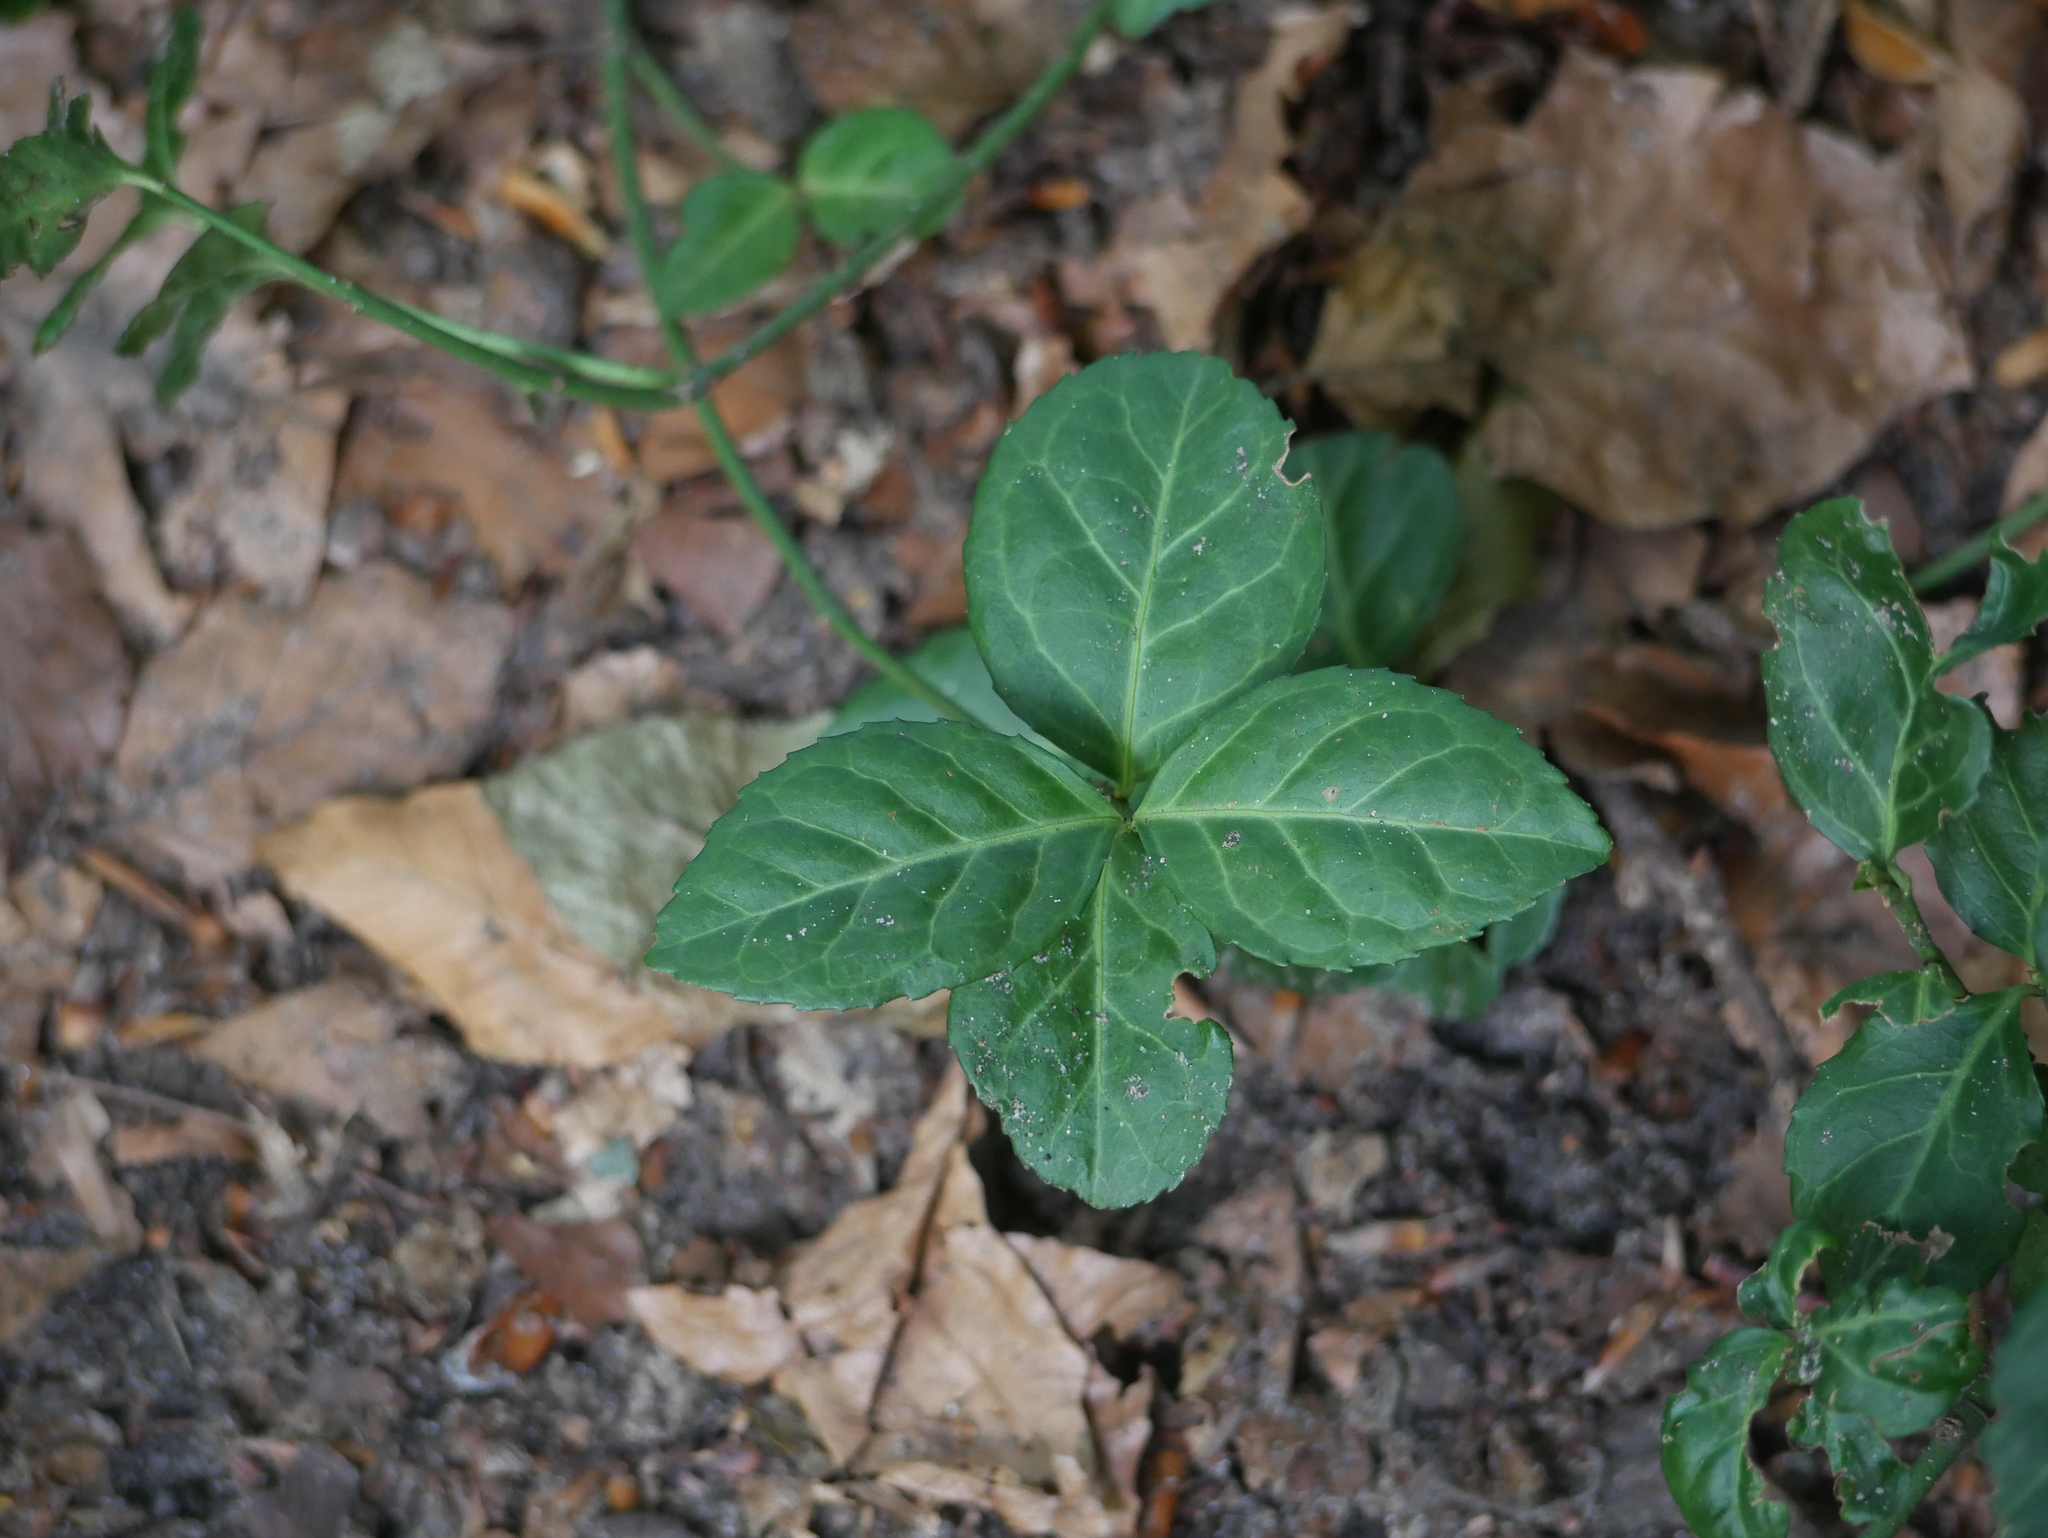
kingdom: Plantae
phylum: Tracheophyta
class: Magnoliopsida
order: Celastrales
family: Celastraceae
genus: Euonymus
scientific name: Euonymus fortunei
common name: Climbing euonymus
